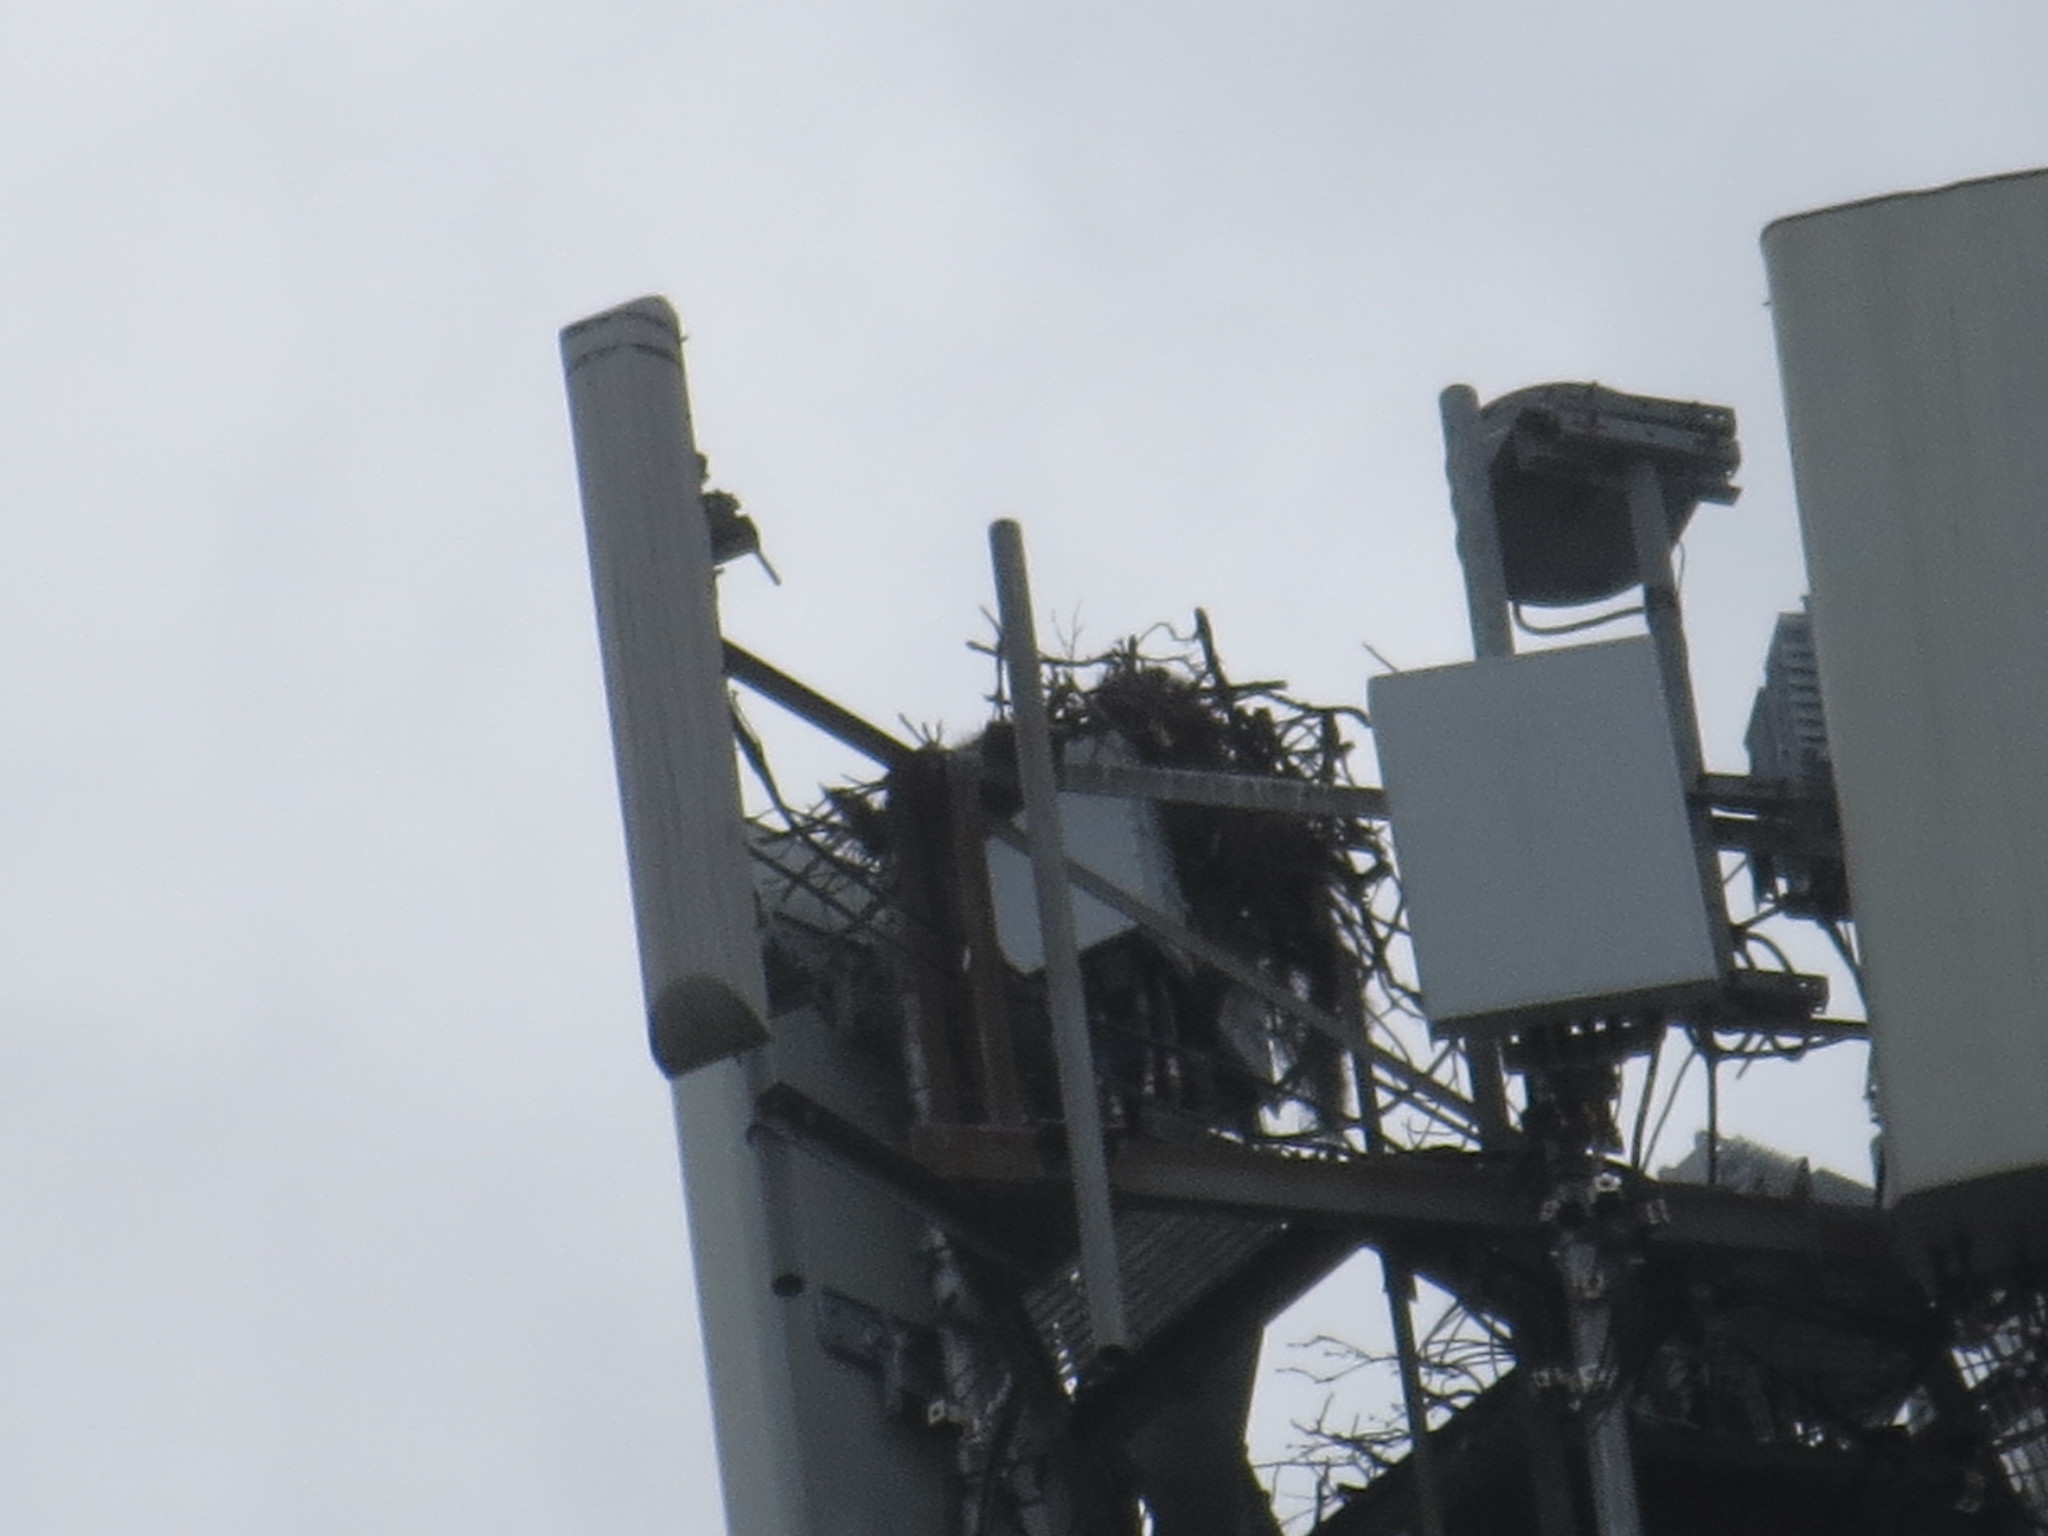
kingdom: Animalia
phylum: Chordata
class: Aves
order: Accipitriformes
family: Pandionidae
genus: Pandion
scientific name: Pandion haliaetus
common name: Osprey
